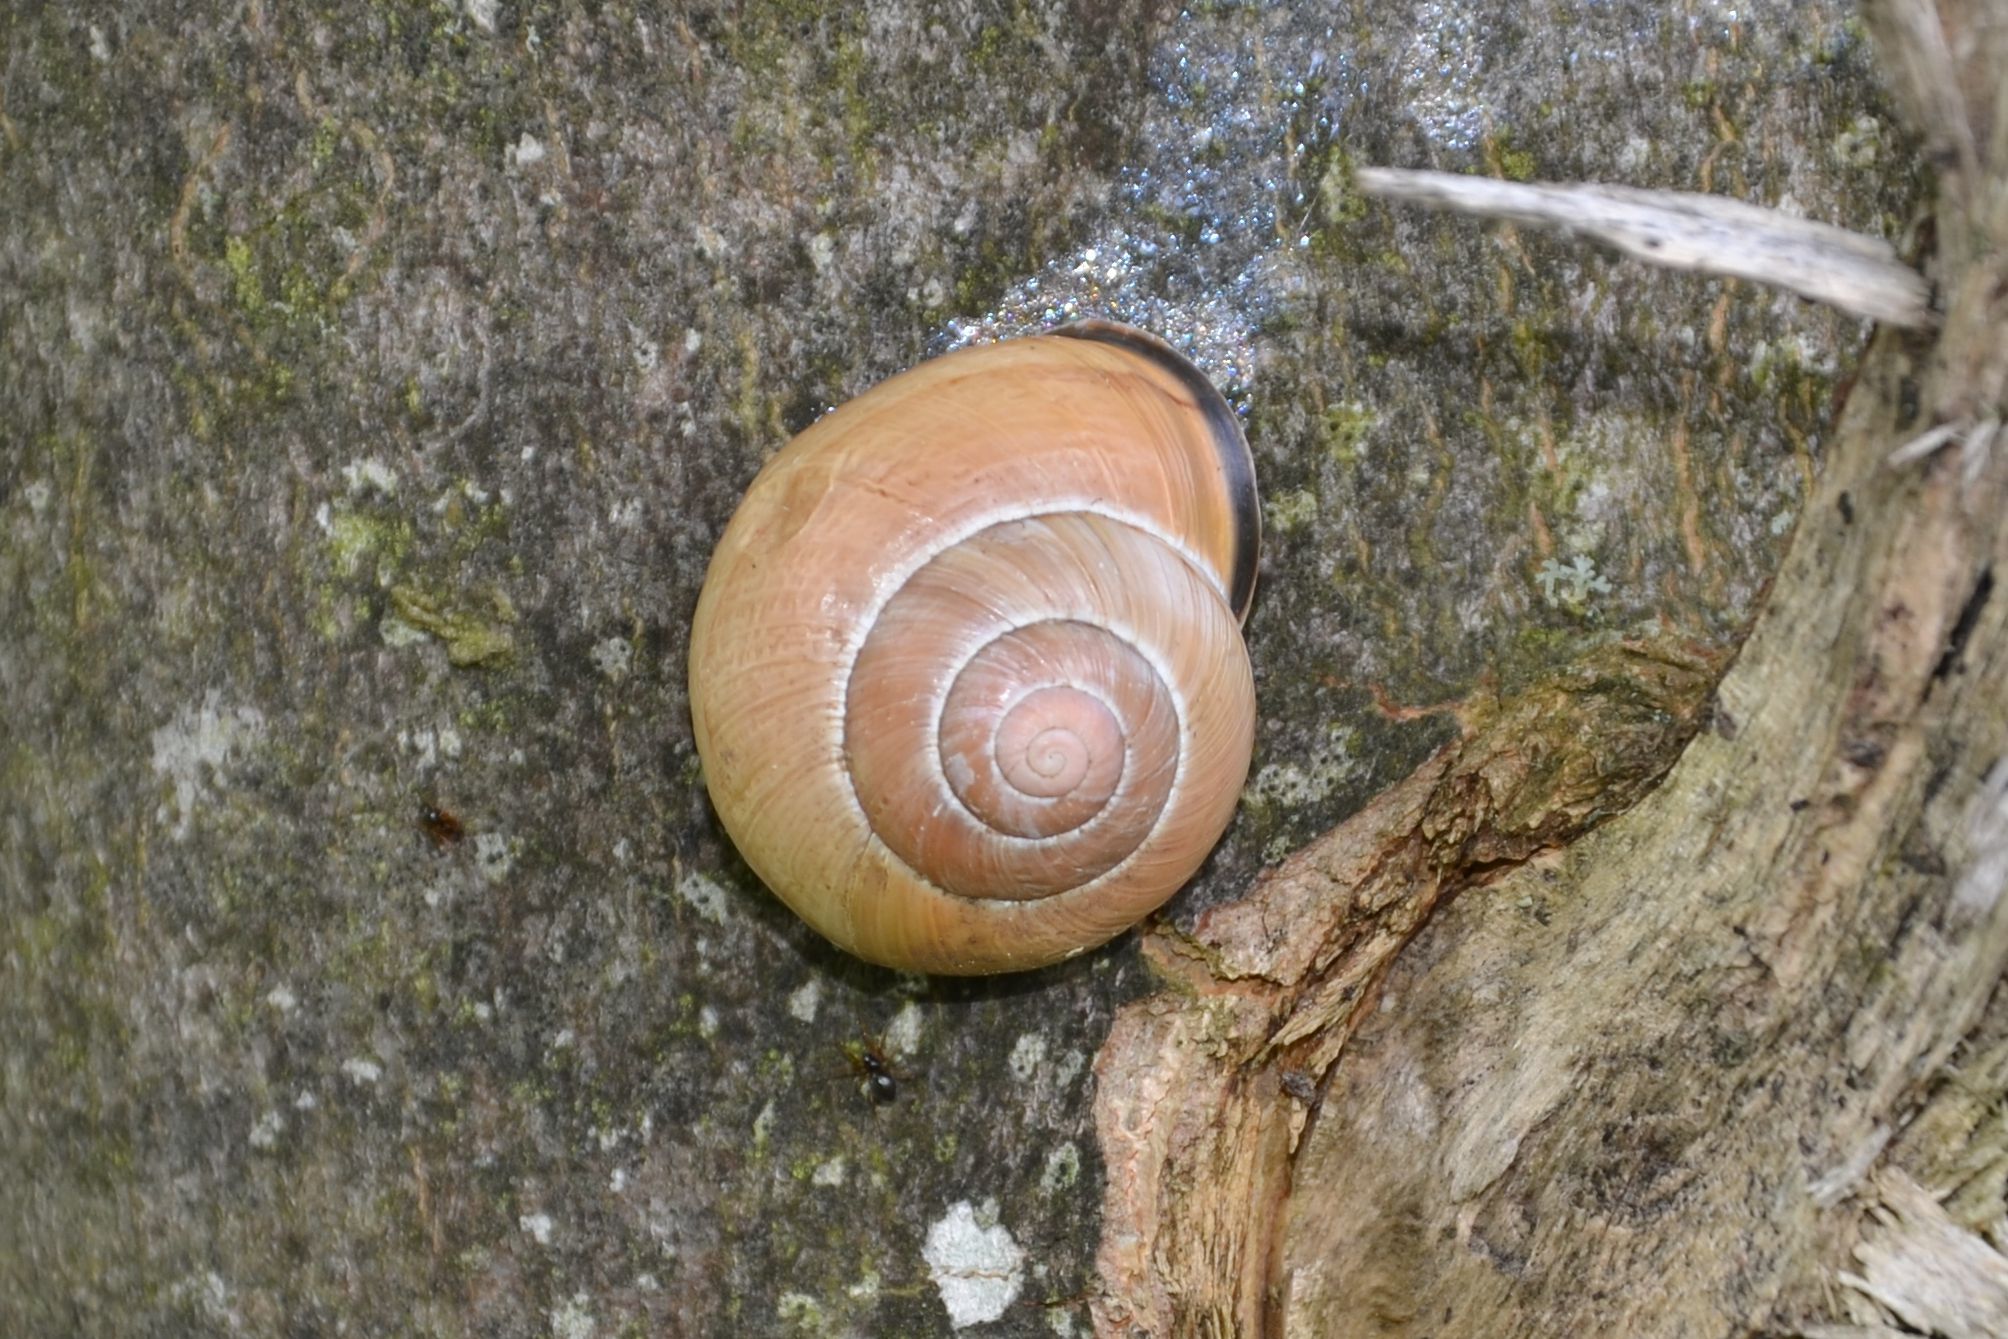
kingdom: Animalia
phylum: Mollusca
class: Gastropoda
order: Stylommatophora
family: Helicidae
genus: Cepaea
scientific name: Cepaea nemoralis
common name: Grovesnail
